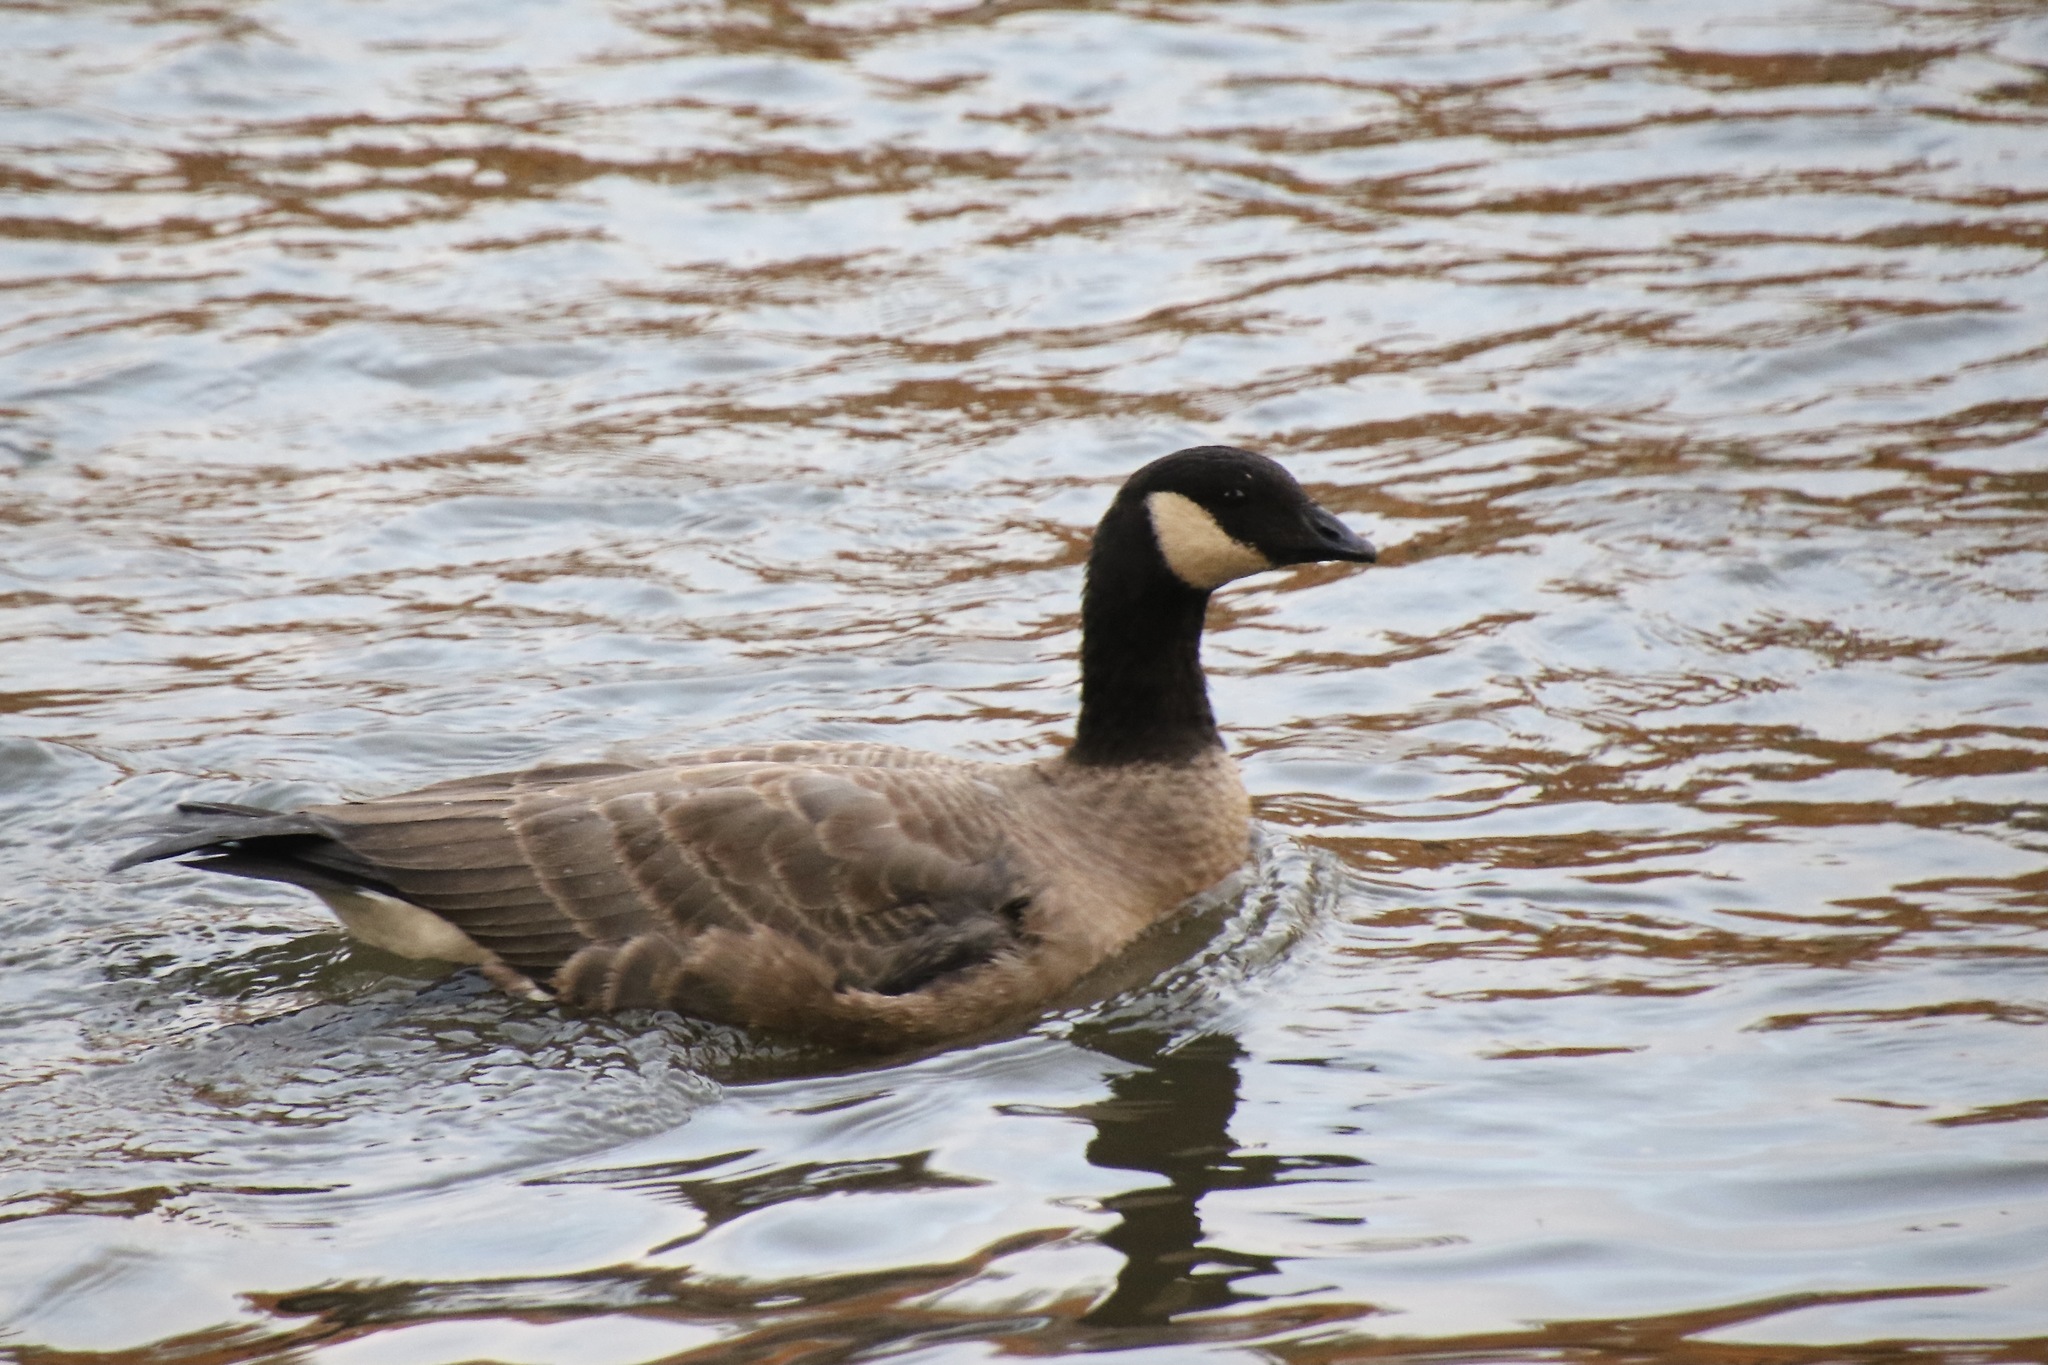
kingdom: Animalia
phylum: Chordata
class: Aves
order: Anseriformes
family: Anatidae
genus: Branta
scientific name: Branta hutchinsii
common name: Cackling goose
